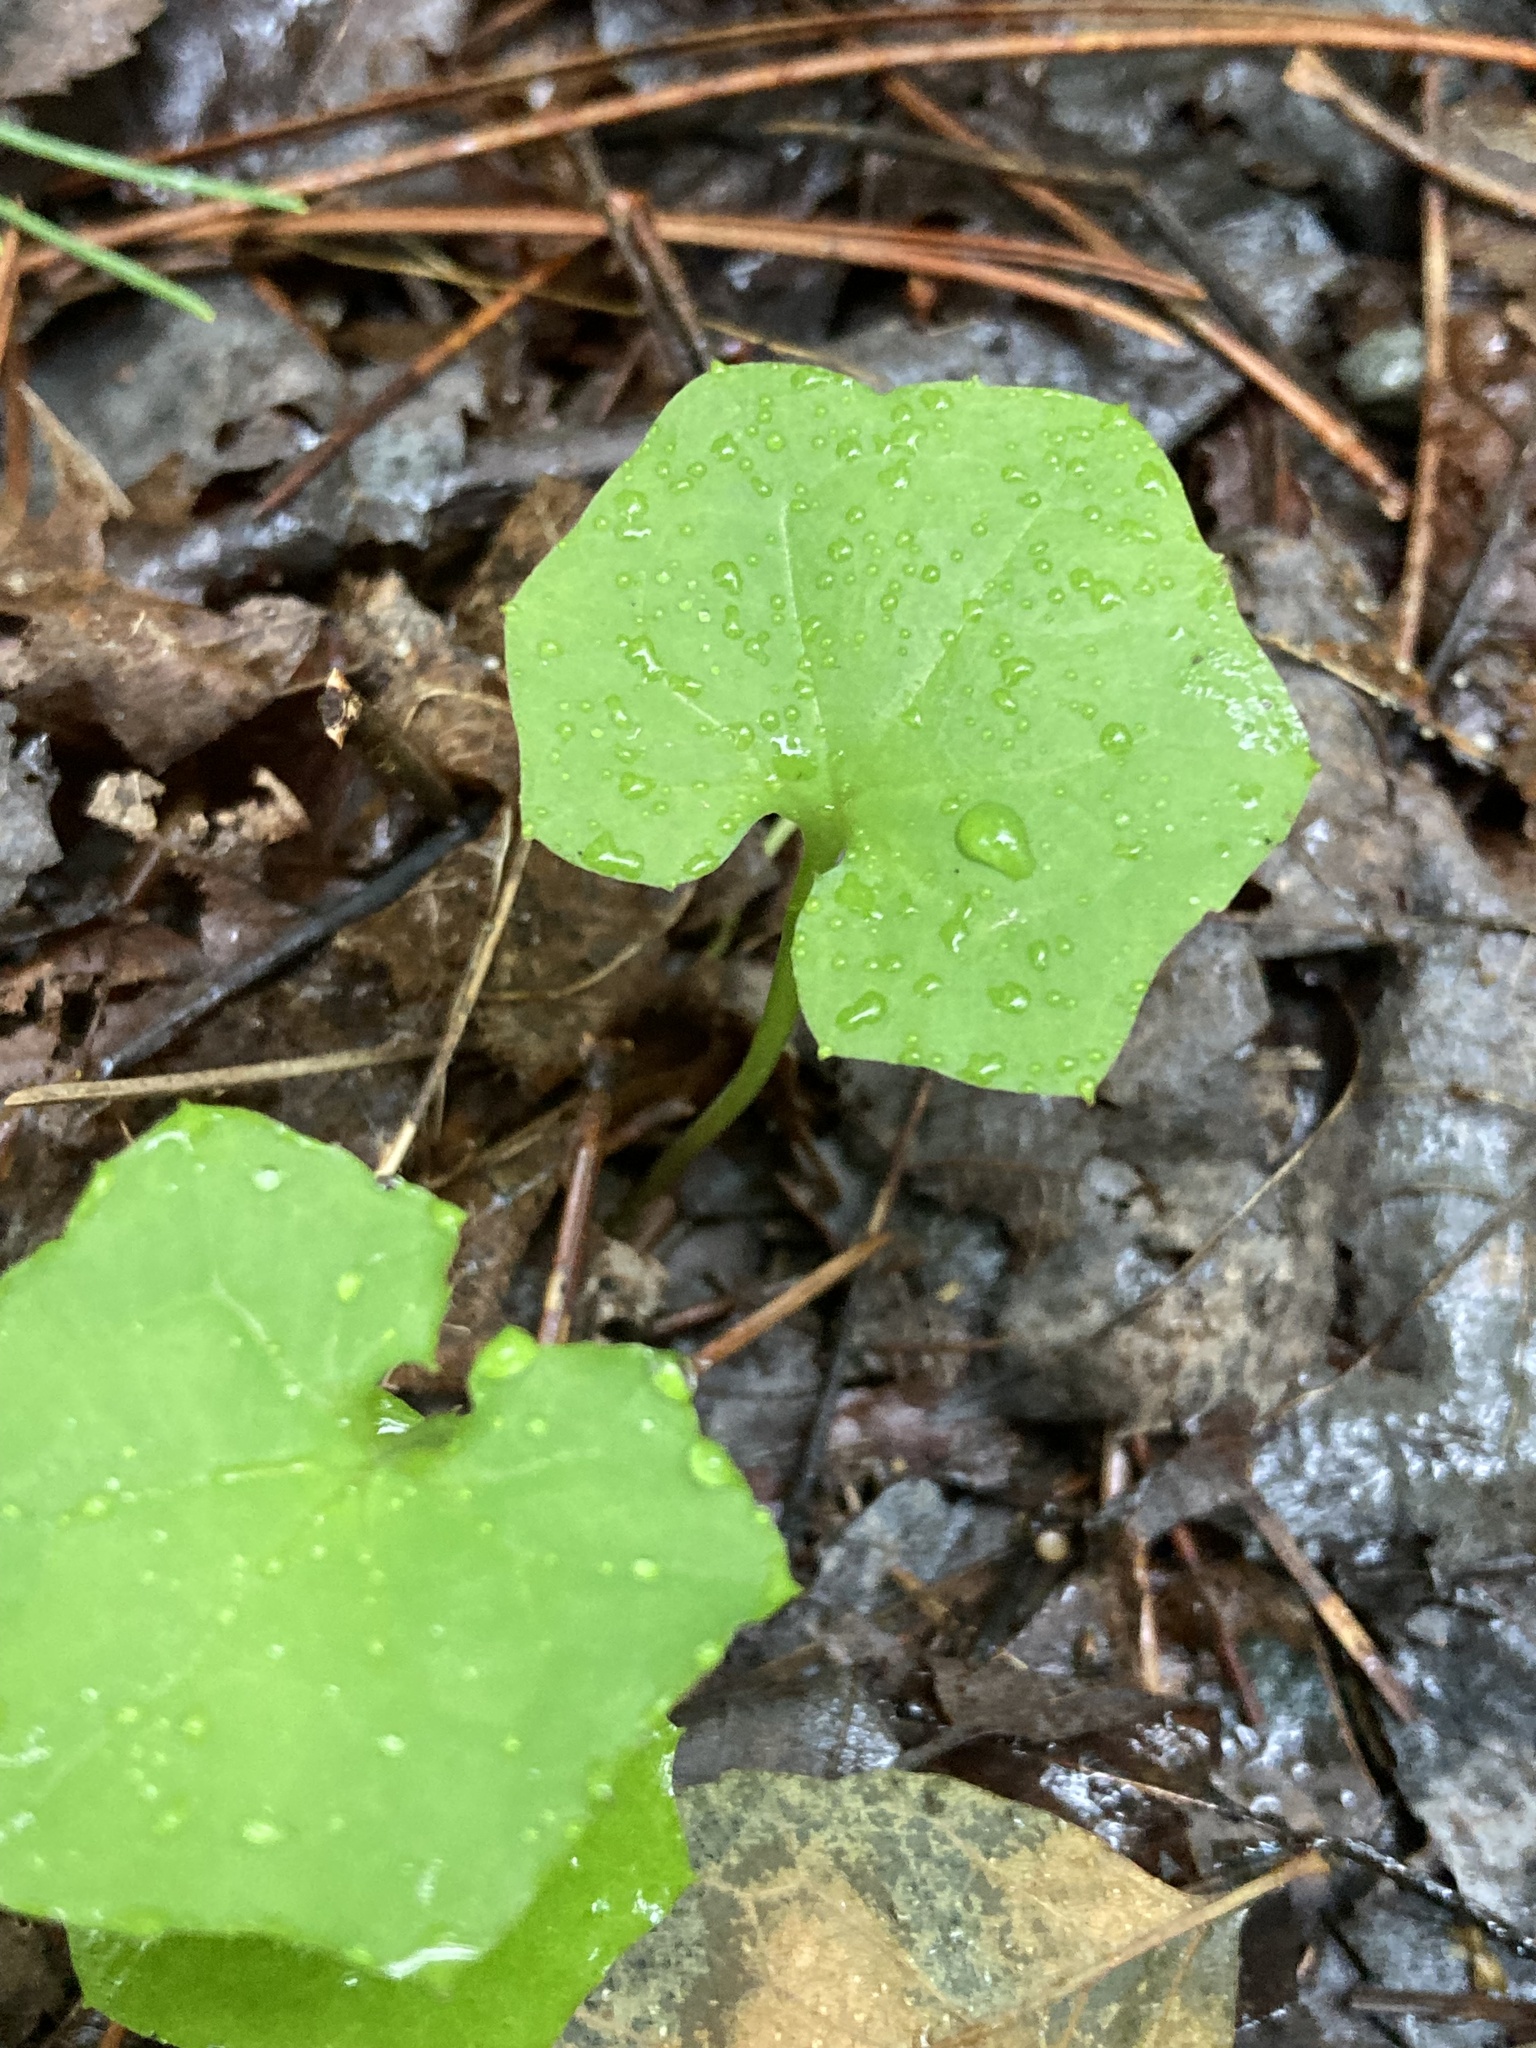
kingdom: Plantae
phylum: Tracheophyta
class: Magnoliopsida
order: Asterales
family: Asteraceae
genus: Tussilago
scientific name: Tussilago farfara
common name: Coltsfoot
